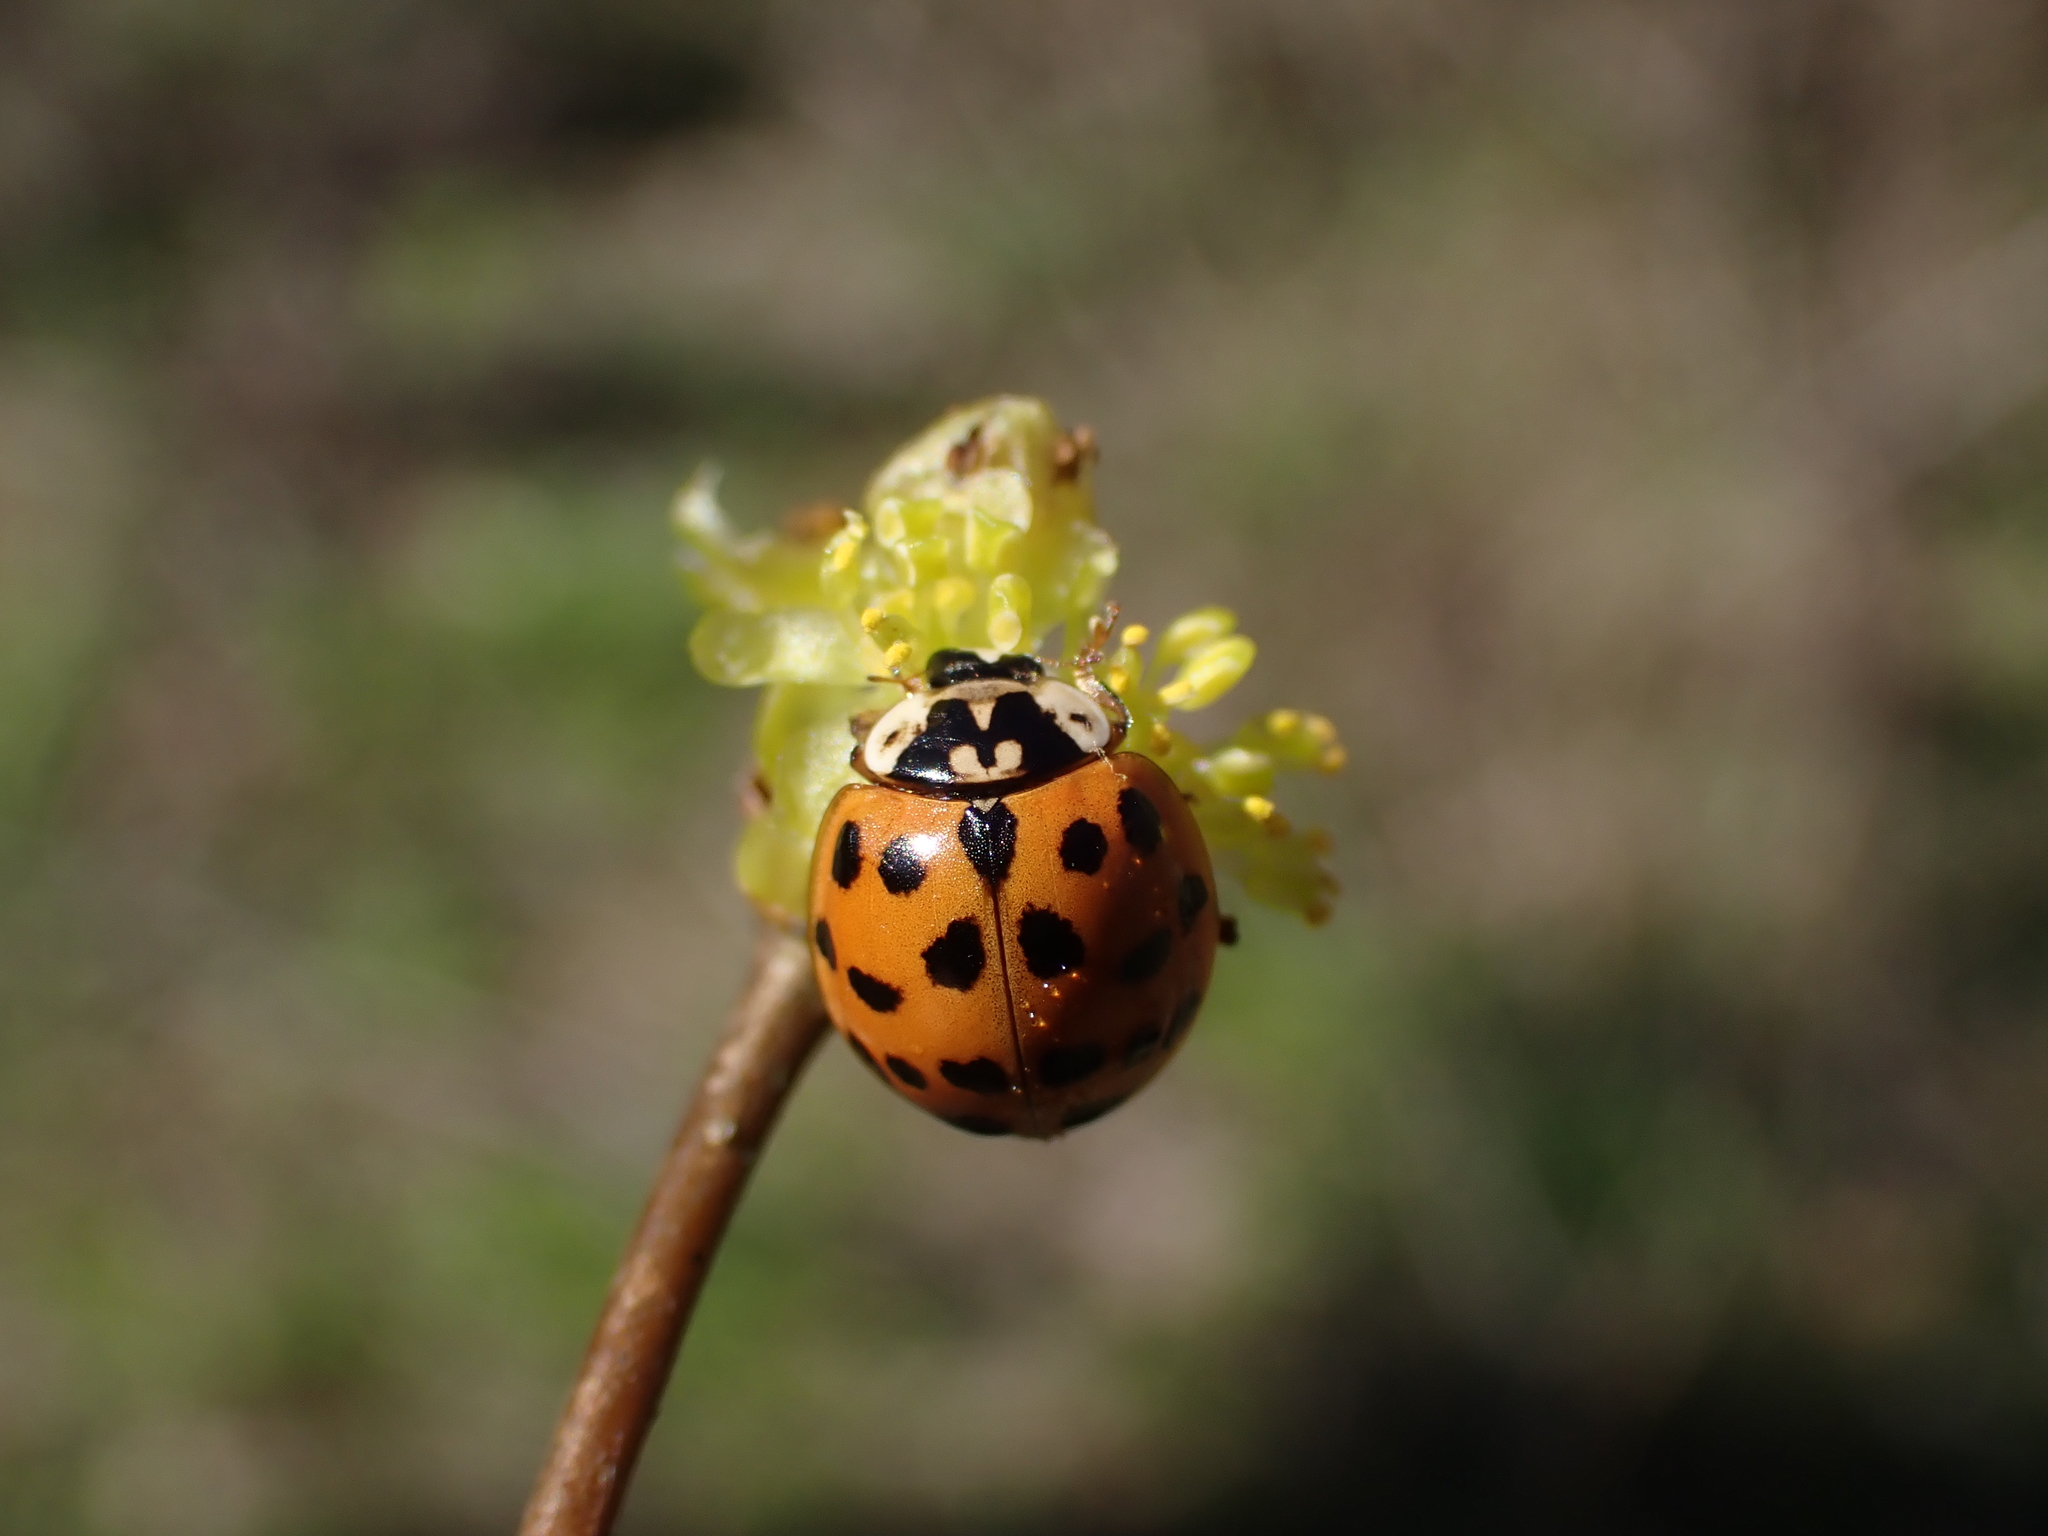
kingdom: Animalia
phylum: Arthropoda
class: Insecta
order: Coleoptera
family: Coccinellidae
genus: Harmonia
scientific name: Harmonia axyridis
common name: Harlequin ladybird
